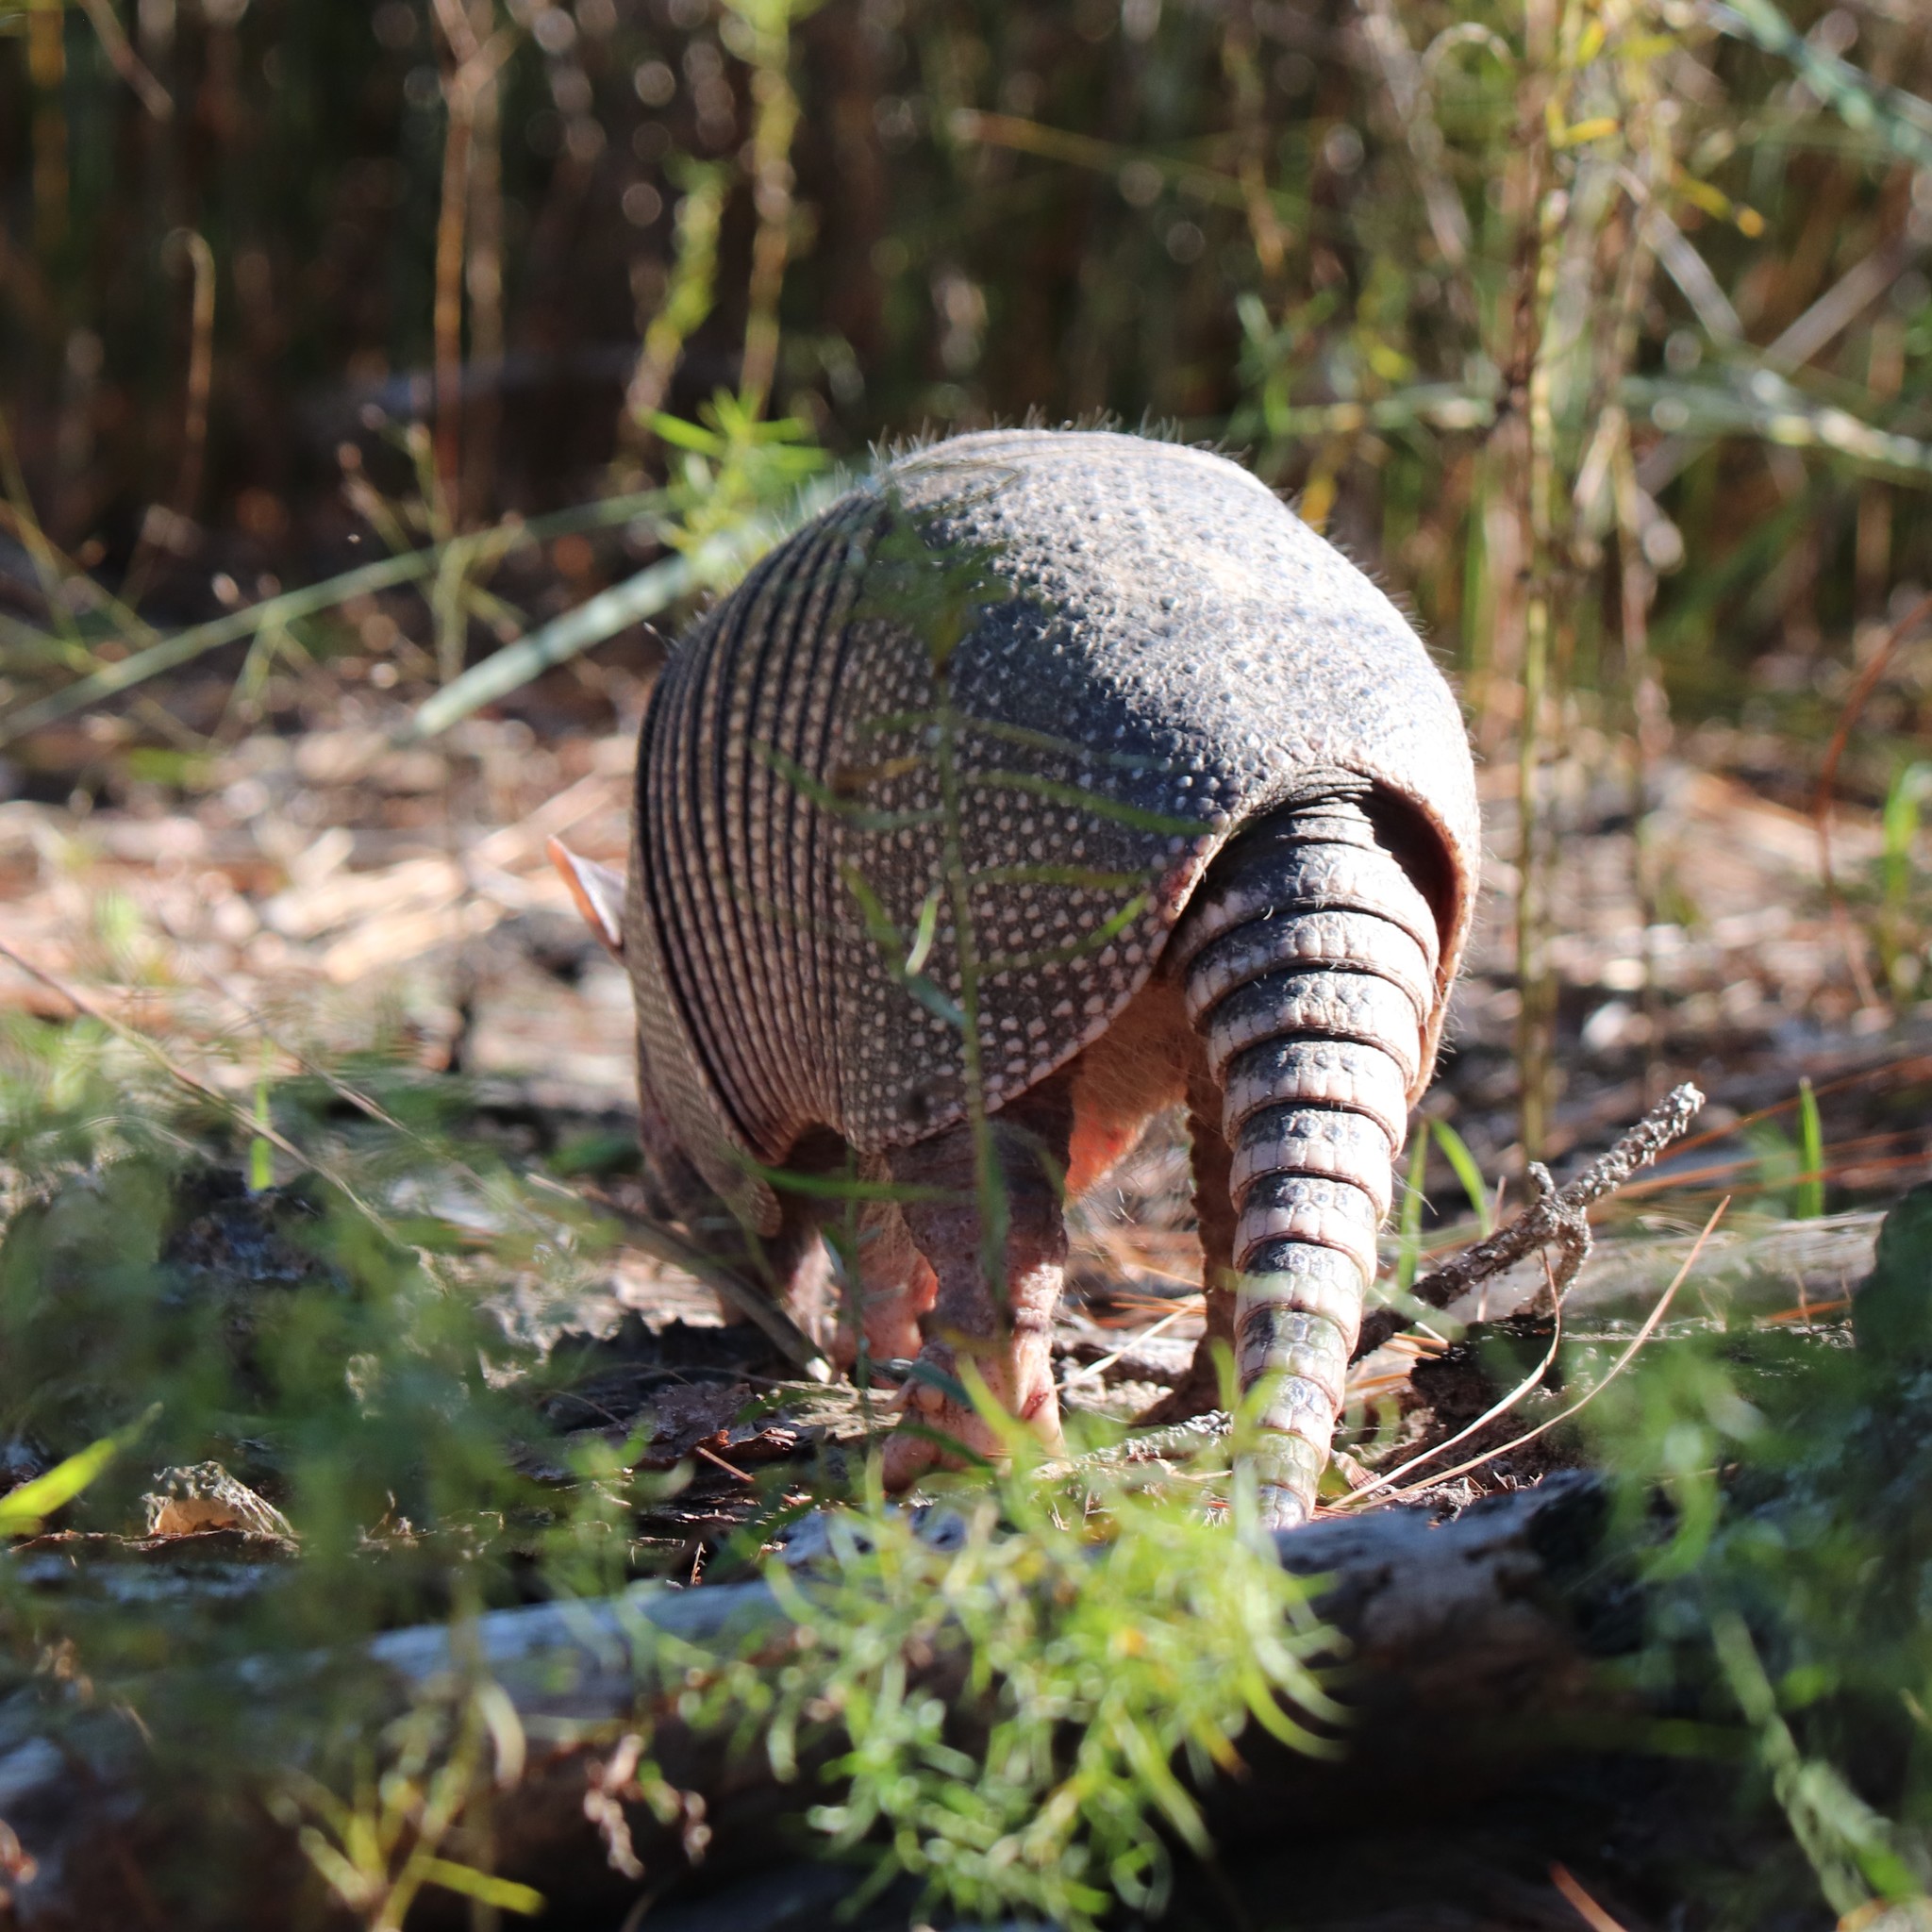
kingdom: Animalia
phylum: Chordata
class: Mammalia
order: Cingulata
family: Dasypodidae
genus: Dasypus
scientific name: Dasypus novemcinctus
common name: Nine-banded armadillo
